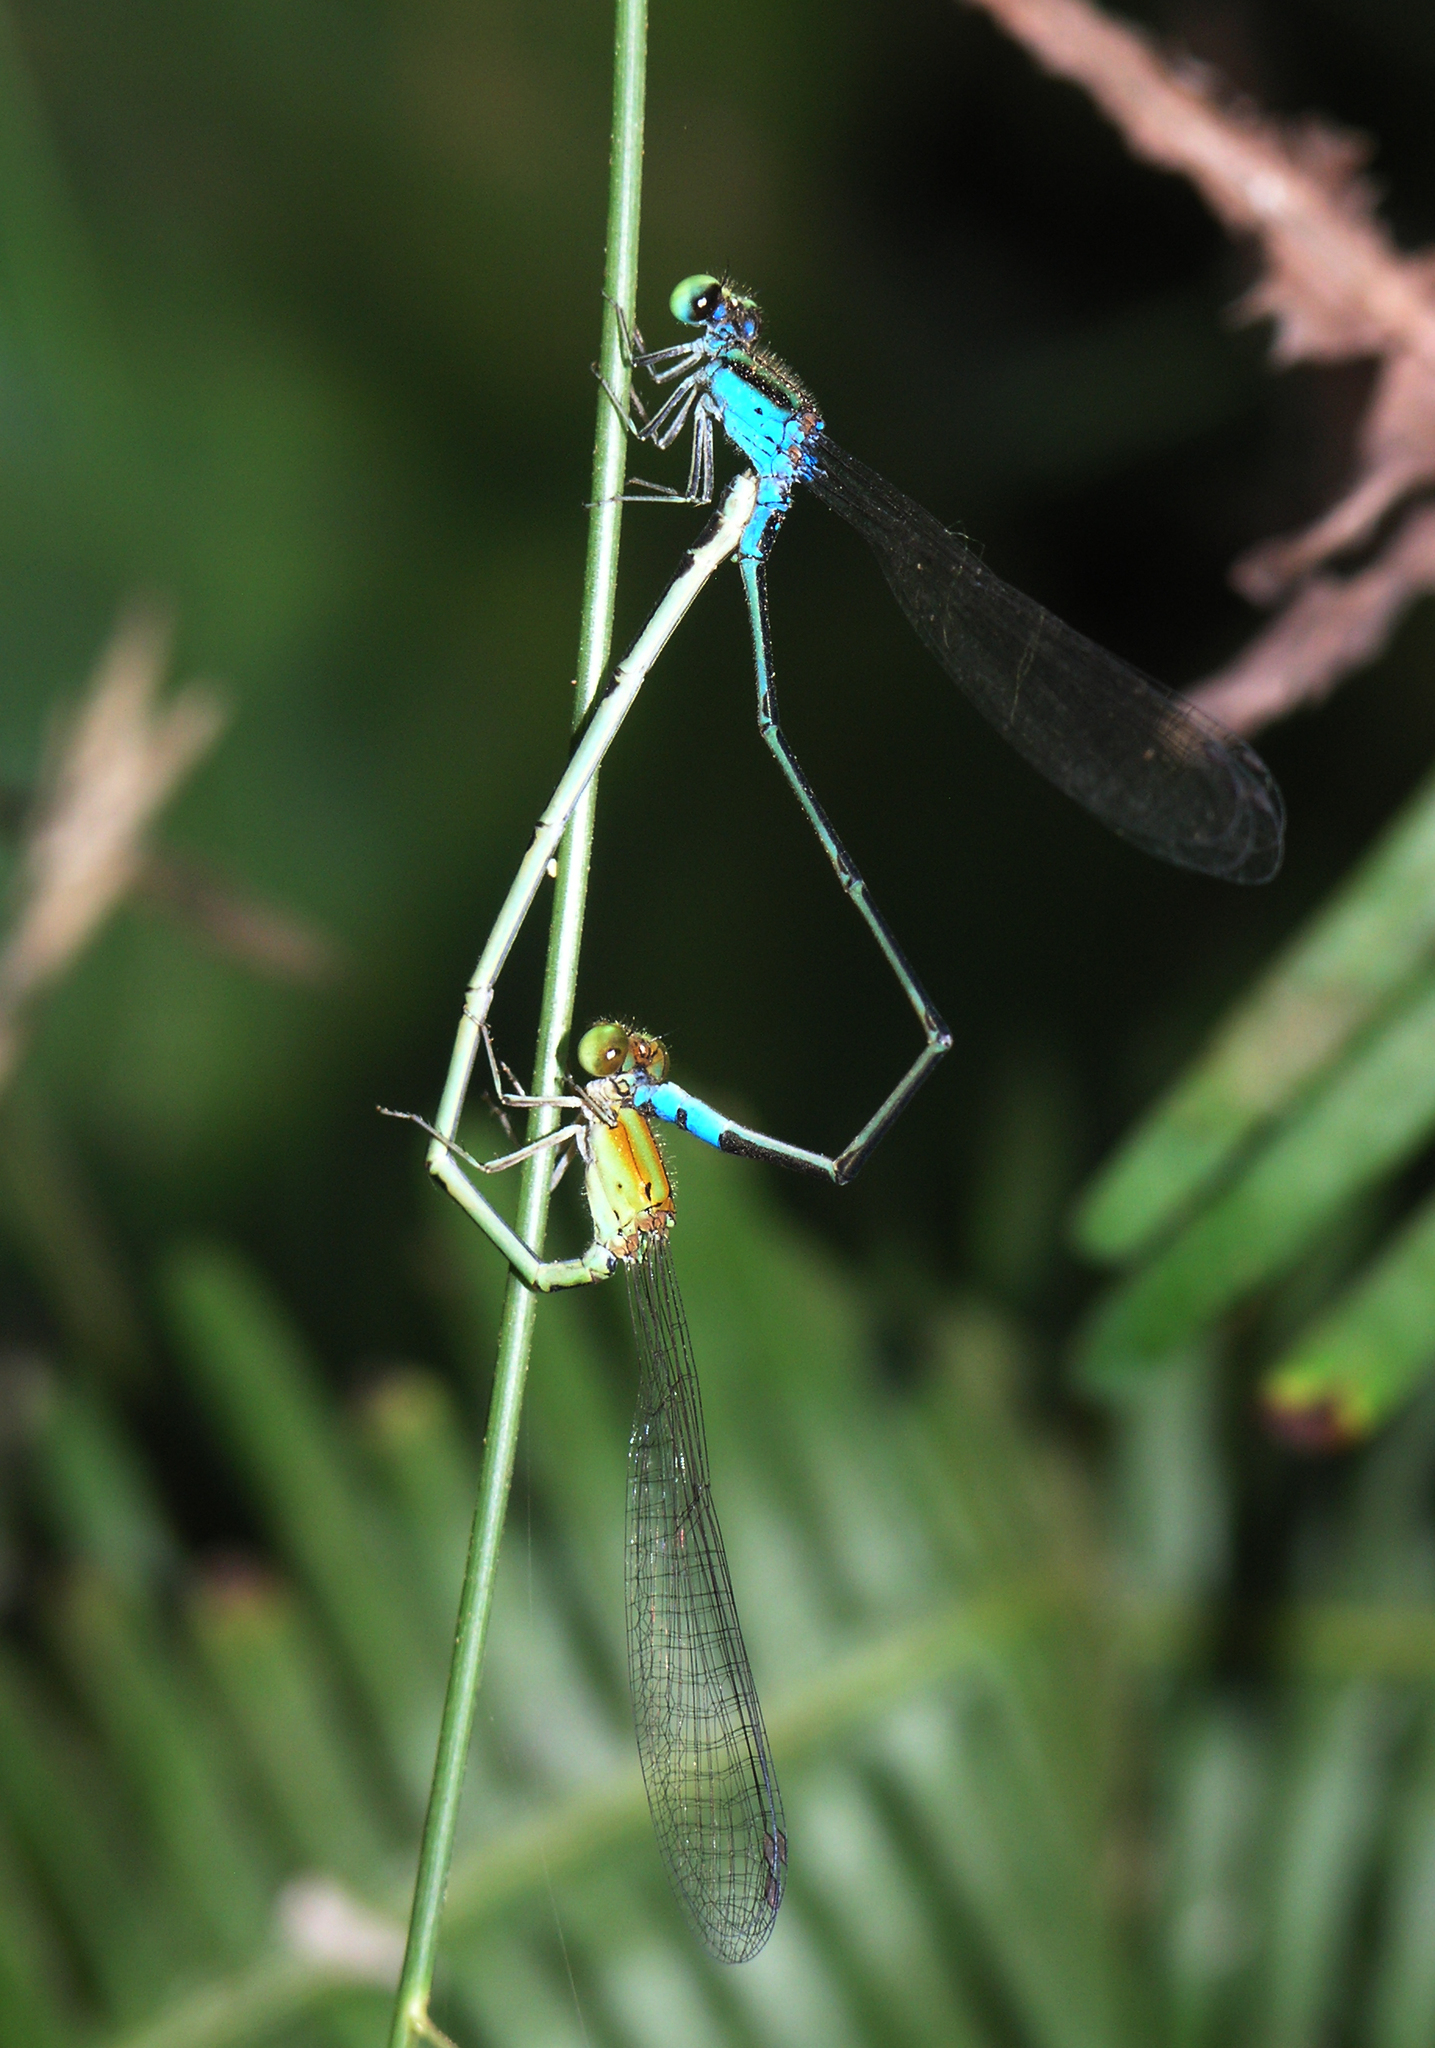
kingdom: Animalia
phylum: Arthropoda
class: Insecta
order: Odonata
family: Coenagrionidae
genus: Pseudagrion
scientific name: Pseudagrion williamsoni
